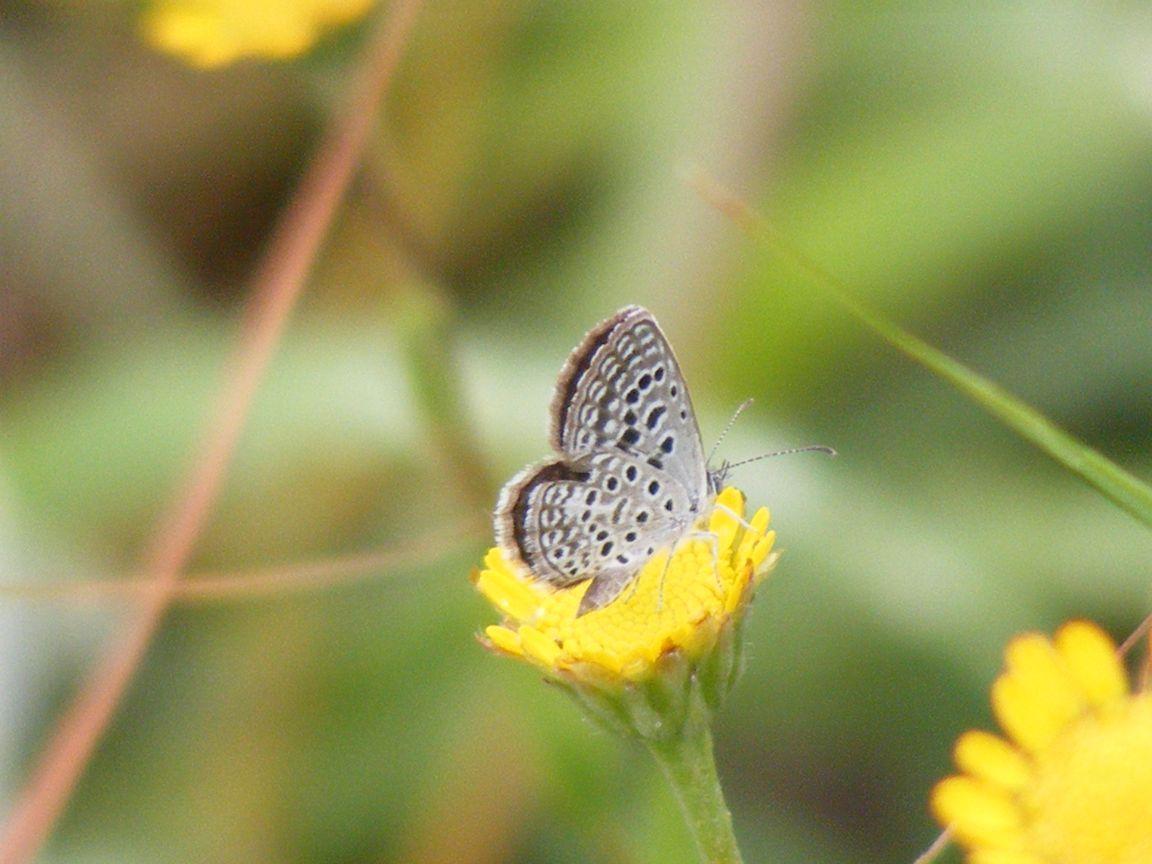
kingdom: Animalia
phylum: Arthropoda
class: Insecta
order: Lepidoptera
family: Lycaenidae
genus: Actizera
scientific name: Actizera lucida
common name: Rayed blue
